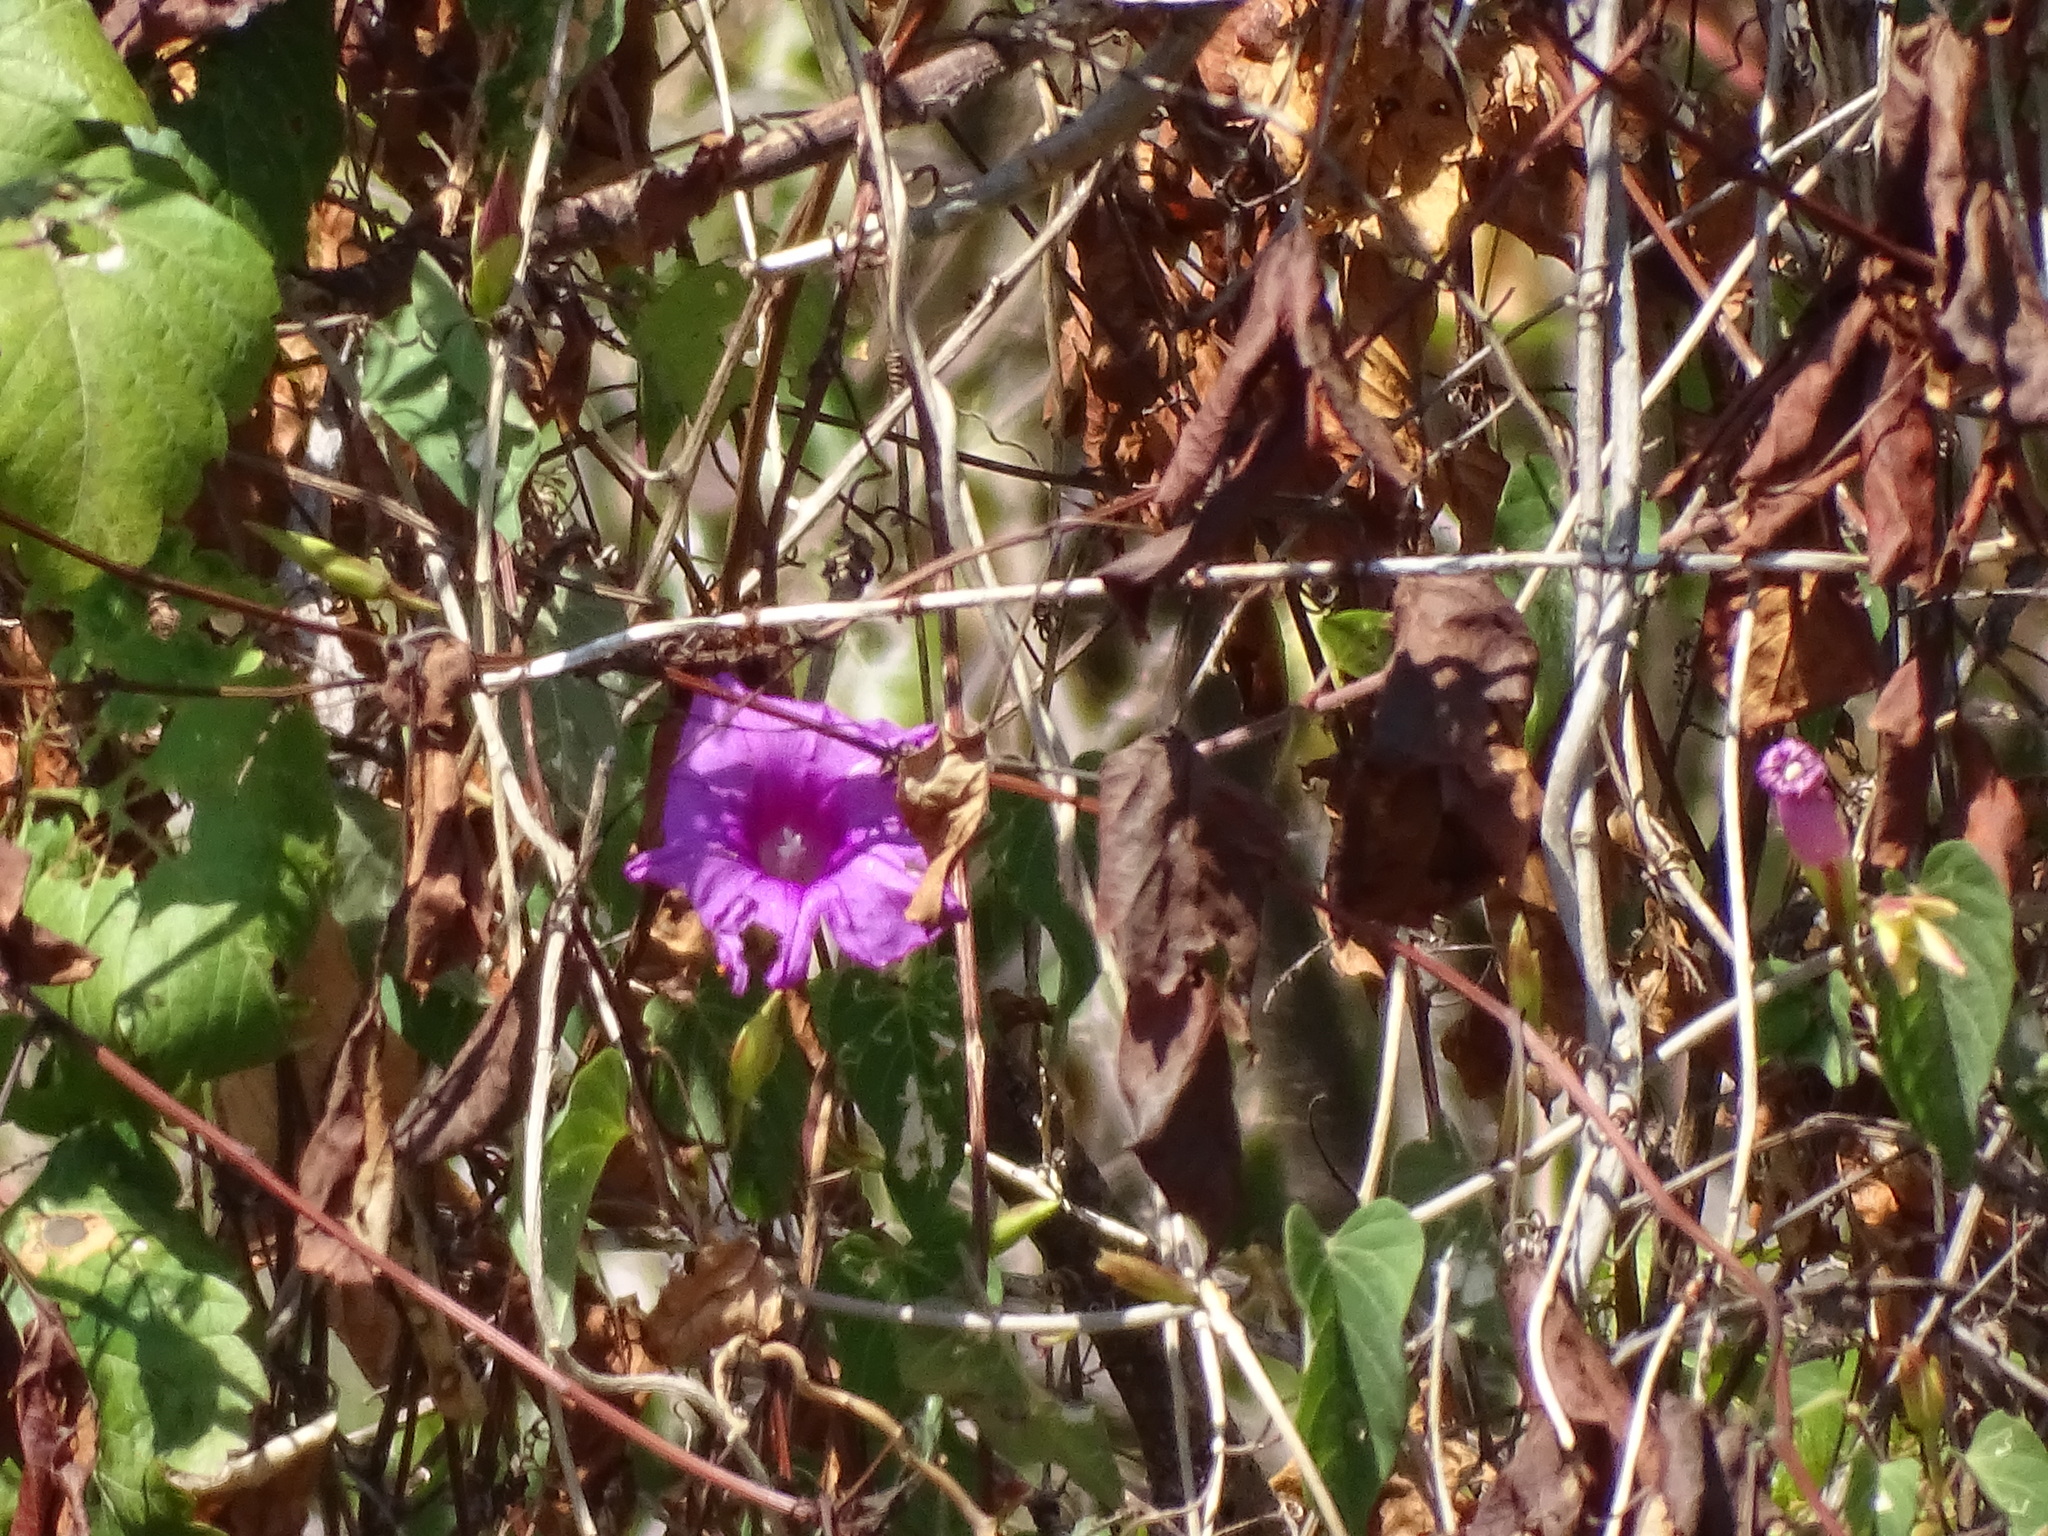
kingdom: Plantae
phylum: Tracheophyta
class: Magnoliopsida
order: Solanales
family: Convolvulaceae
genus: Ipomoea
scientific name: Ipomoea bernoulliana
